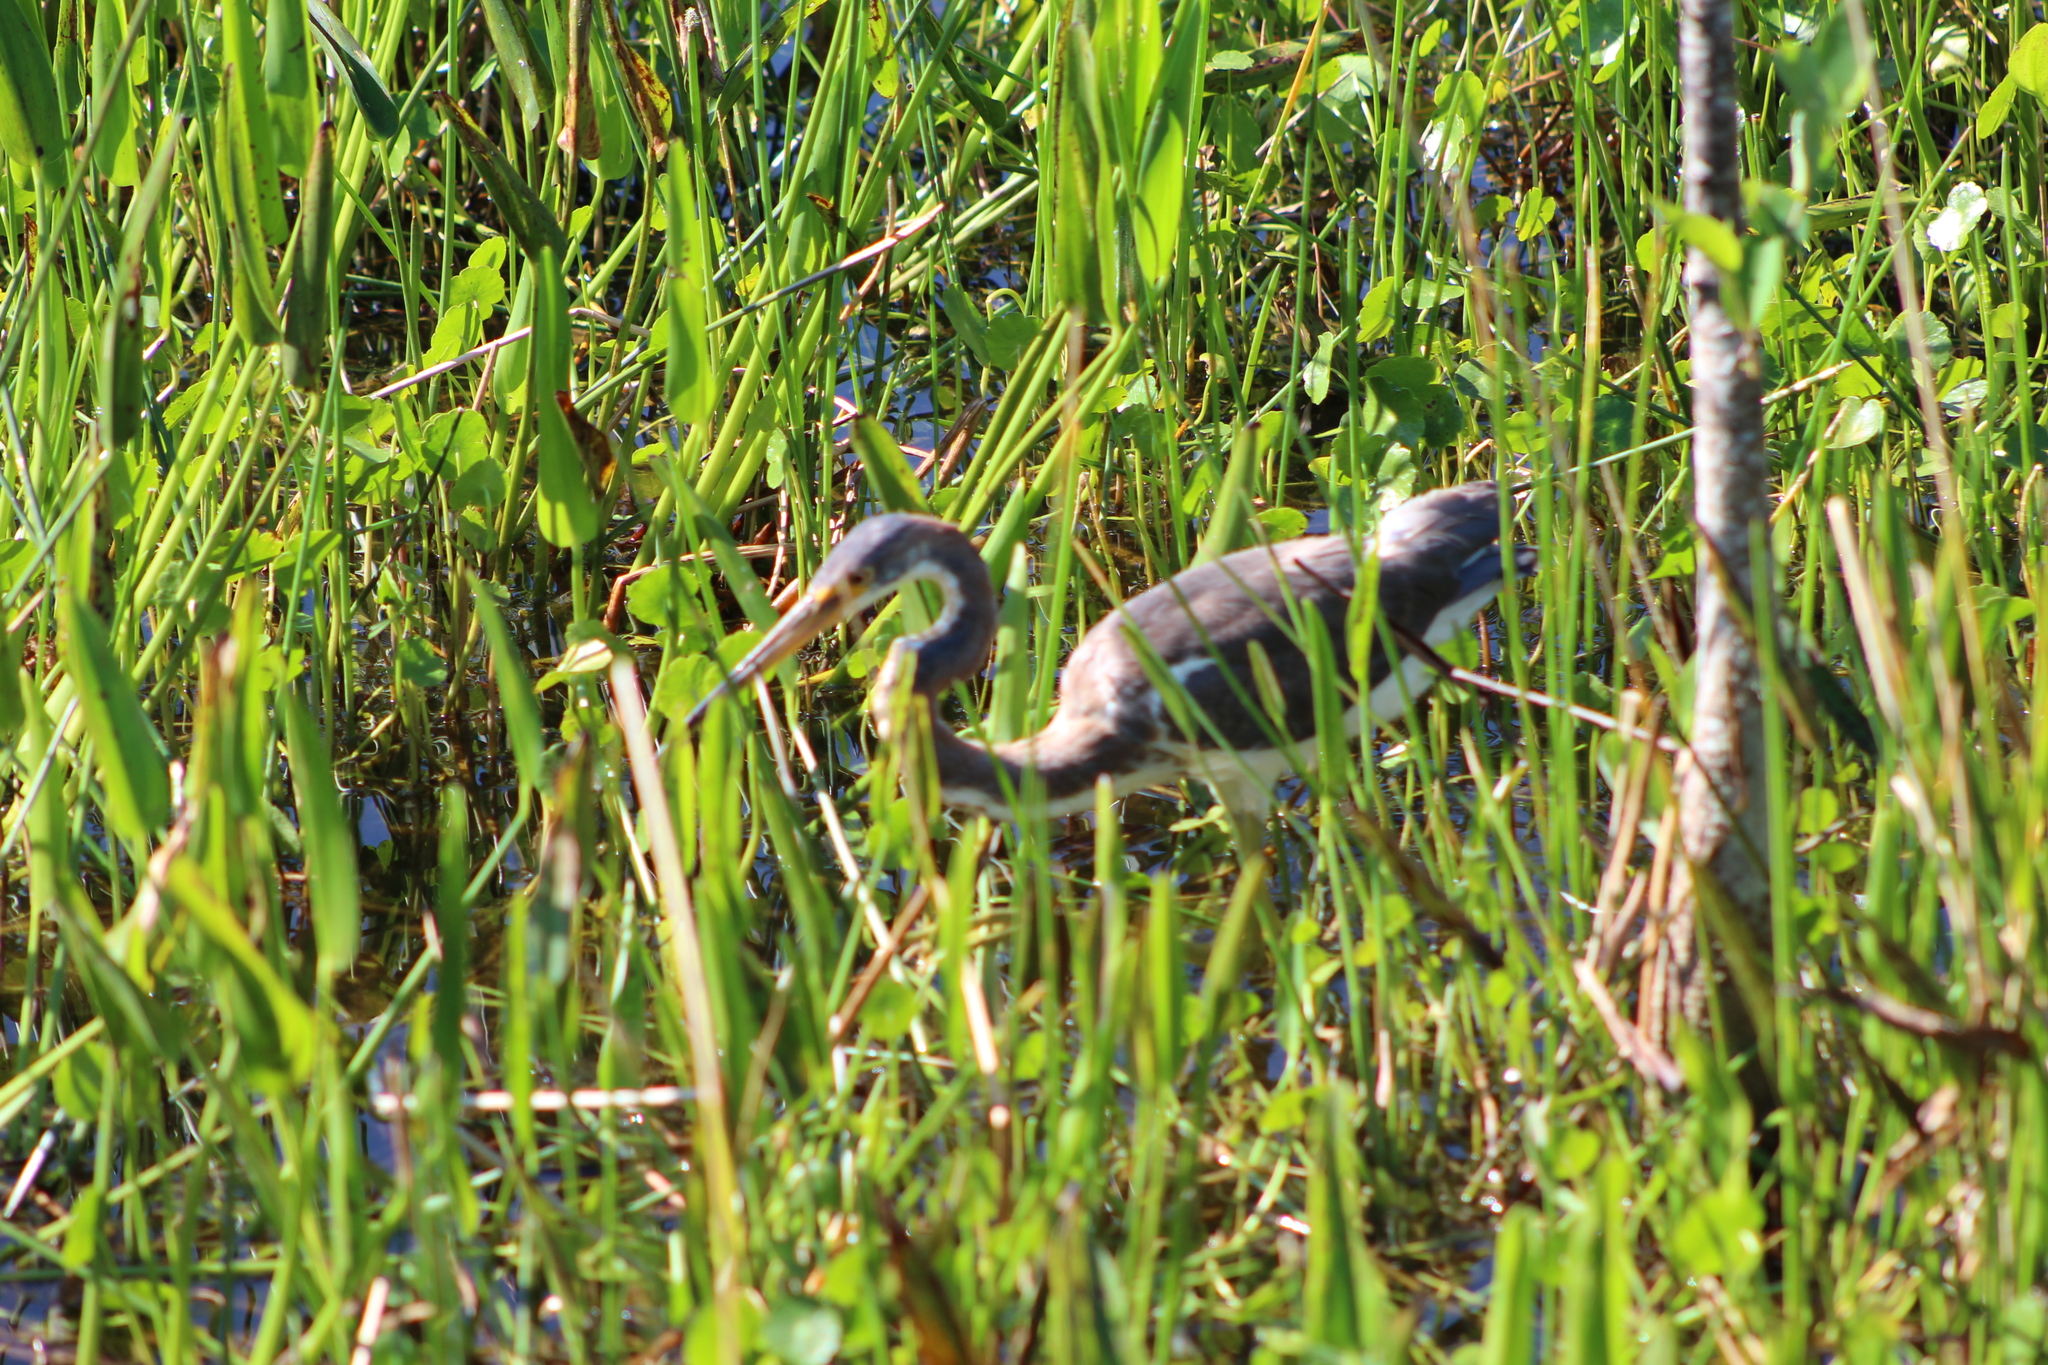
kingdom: Animalia
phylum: Chordata
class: Aves
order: Pelecaniformes
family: Ardeidae
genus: Egretta
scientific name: Egretta tricolor
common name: Tricolored heron
